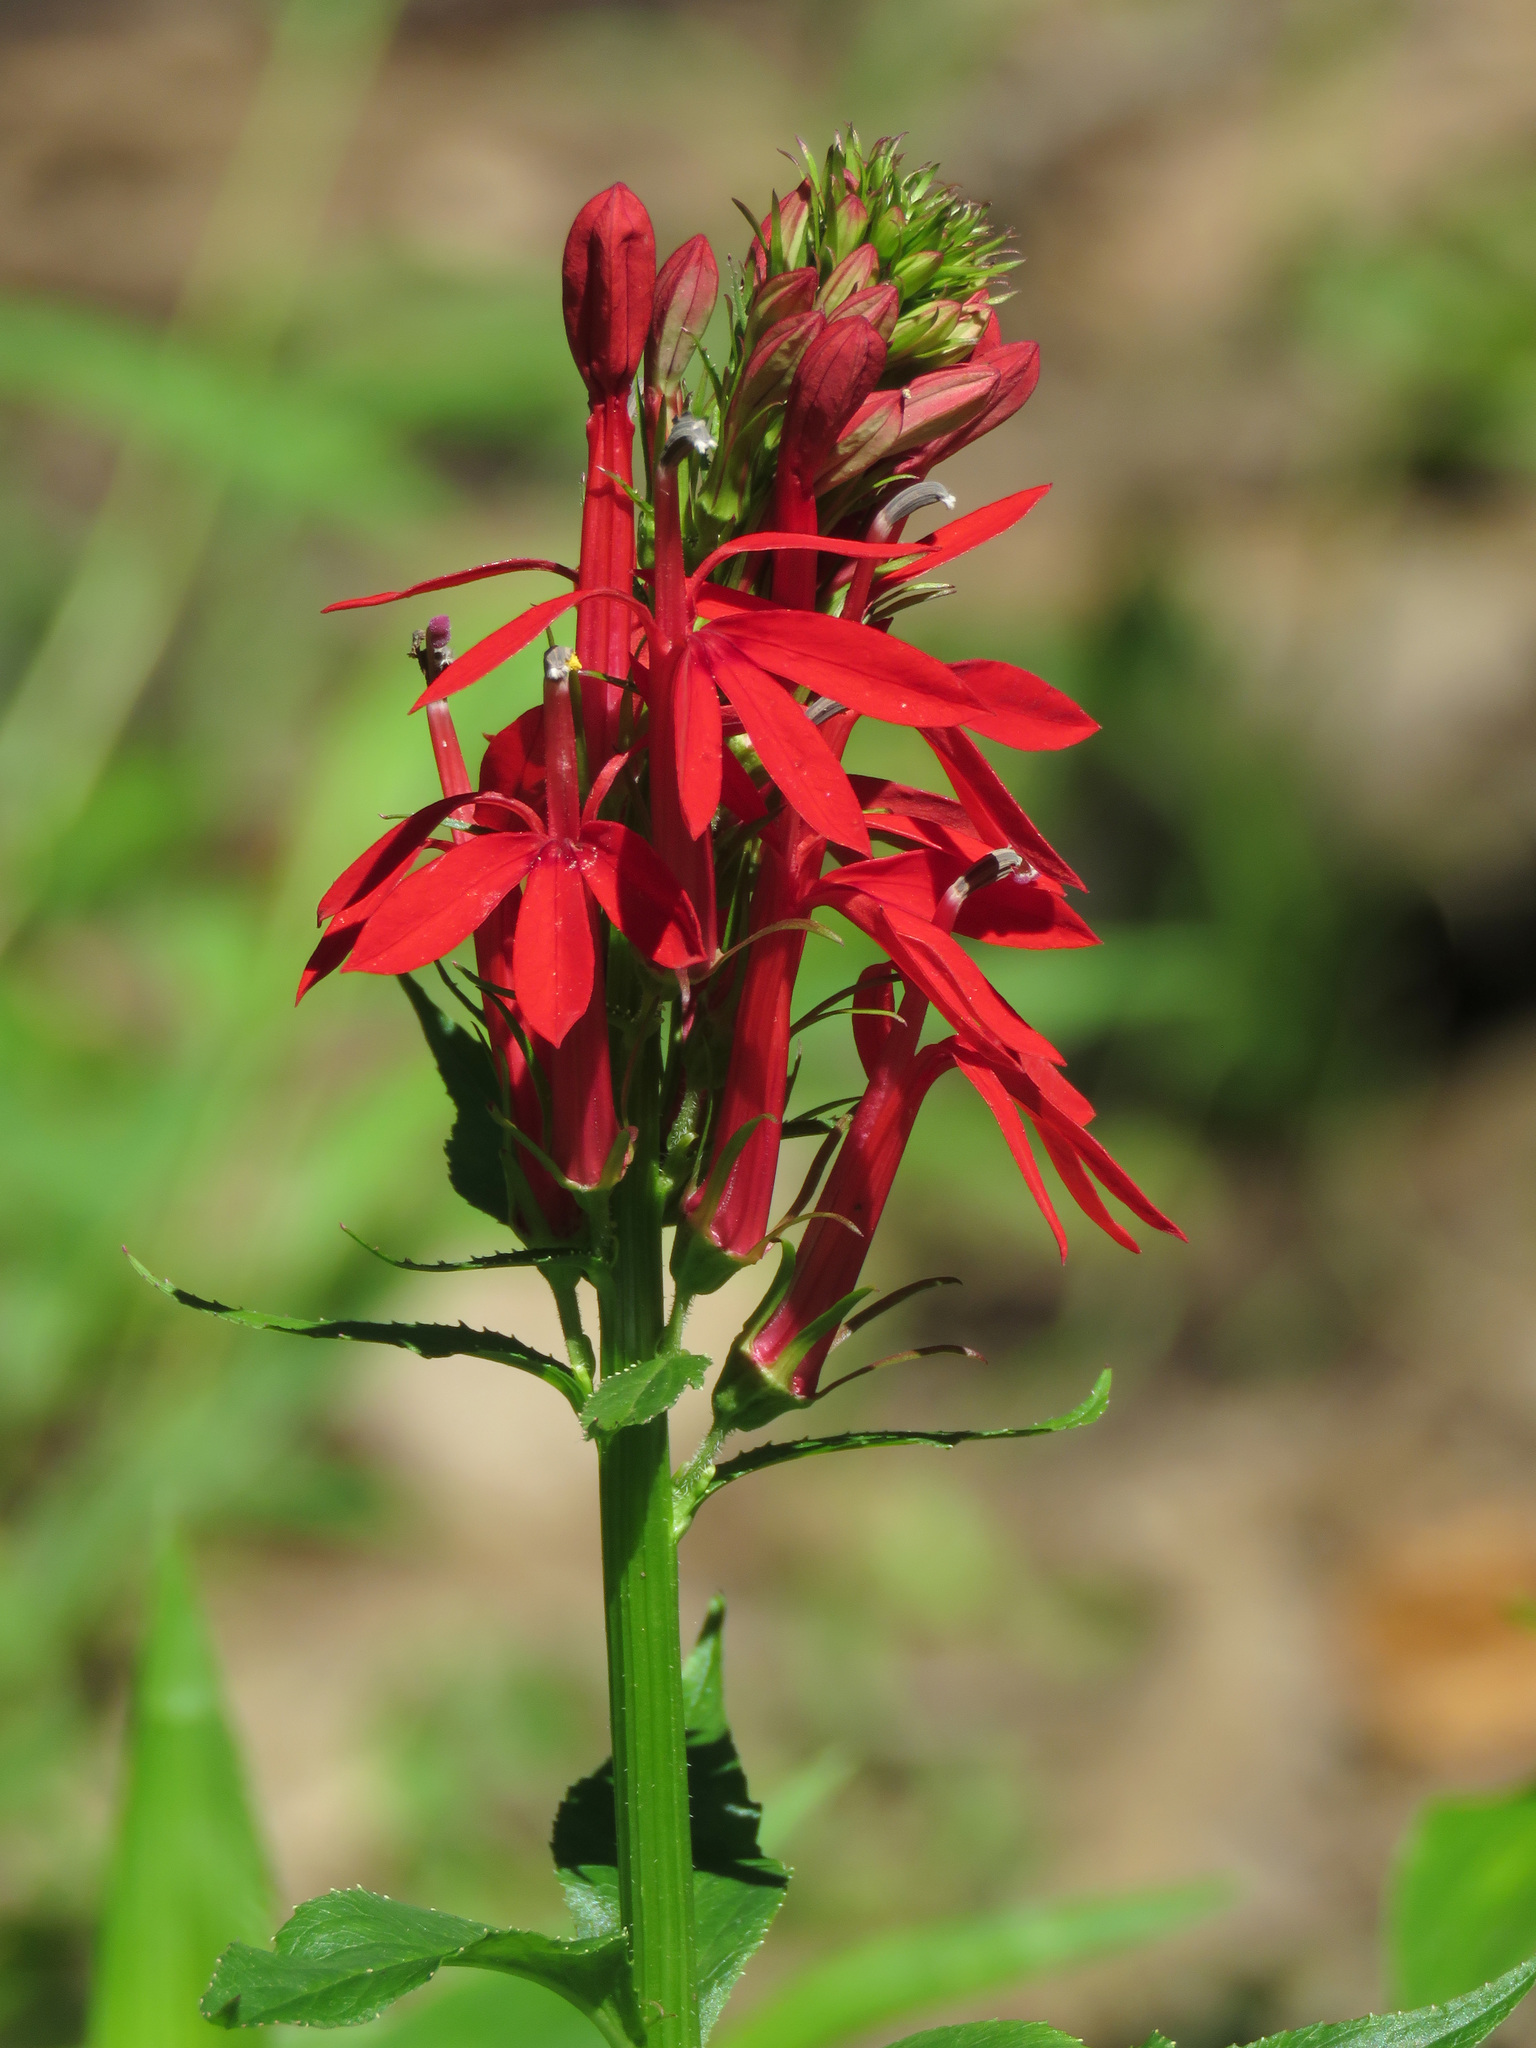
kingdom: Plantae
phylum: Tracheophyta
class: Magnoliopsida
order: Asterales
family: Campanulaceae
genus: Lobelia
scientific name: Lobelia cardinalis
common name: Cardinal flower
